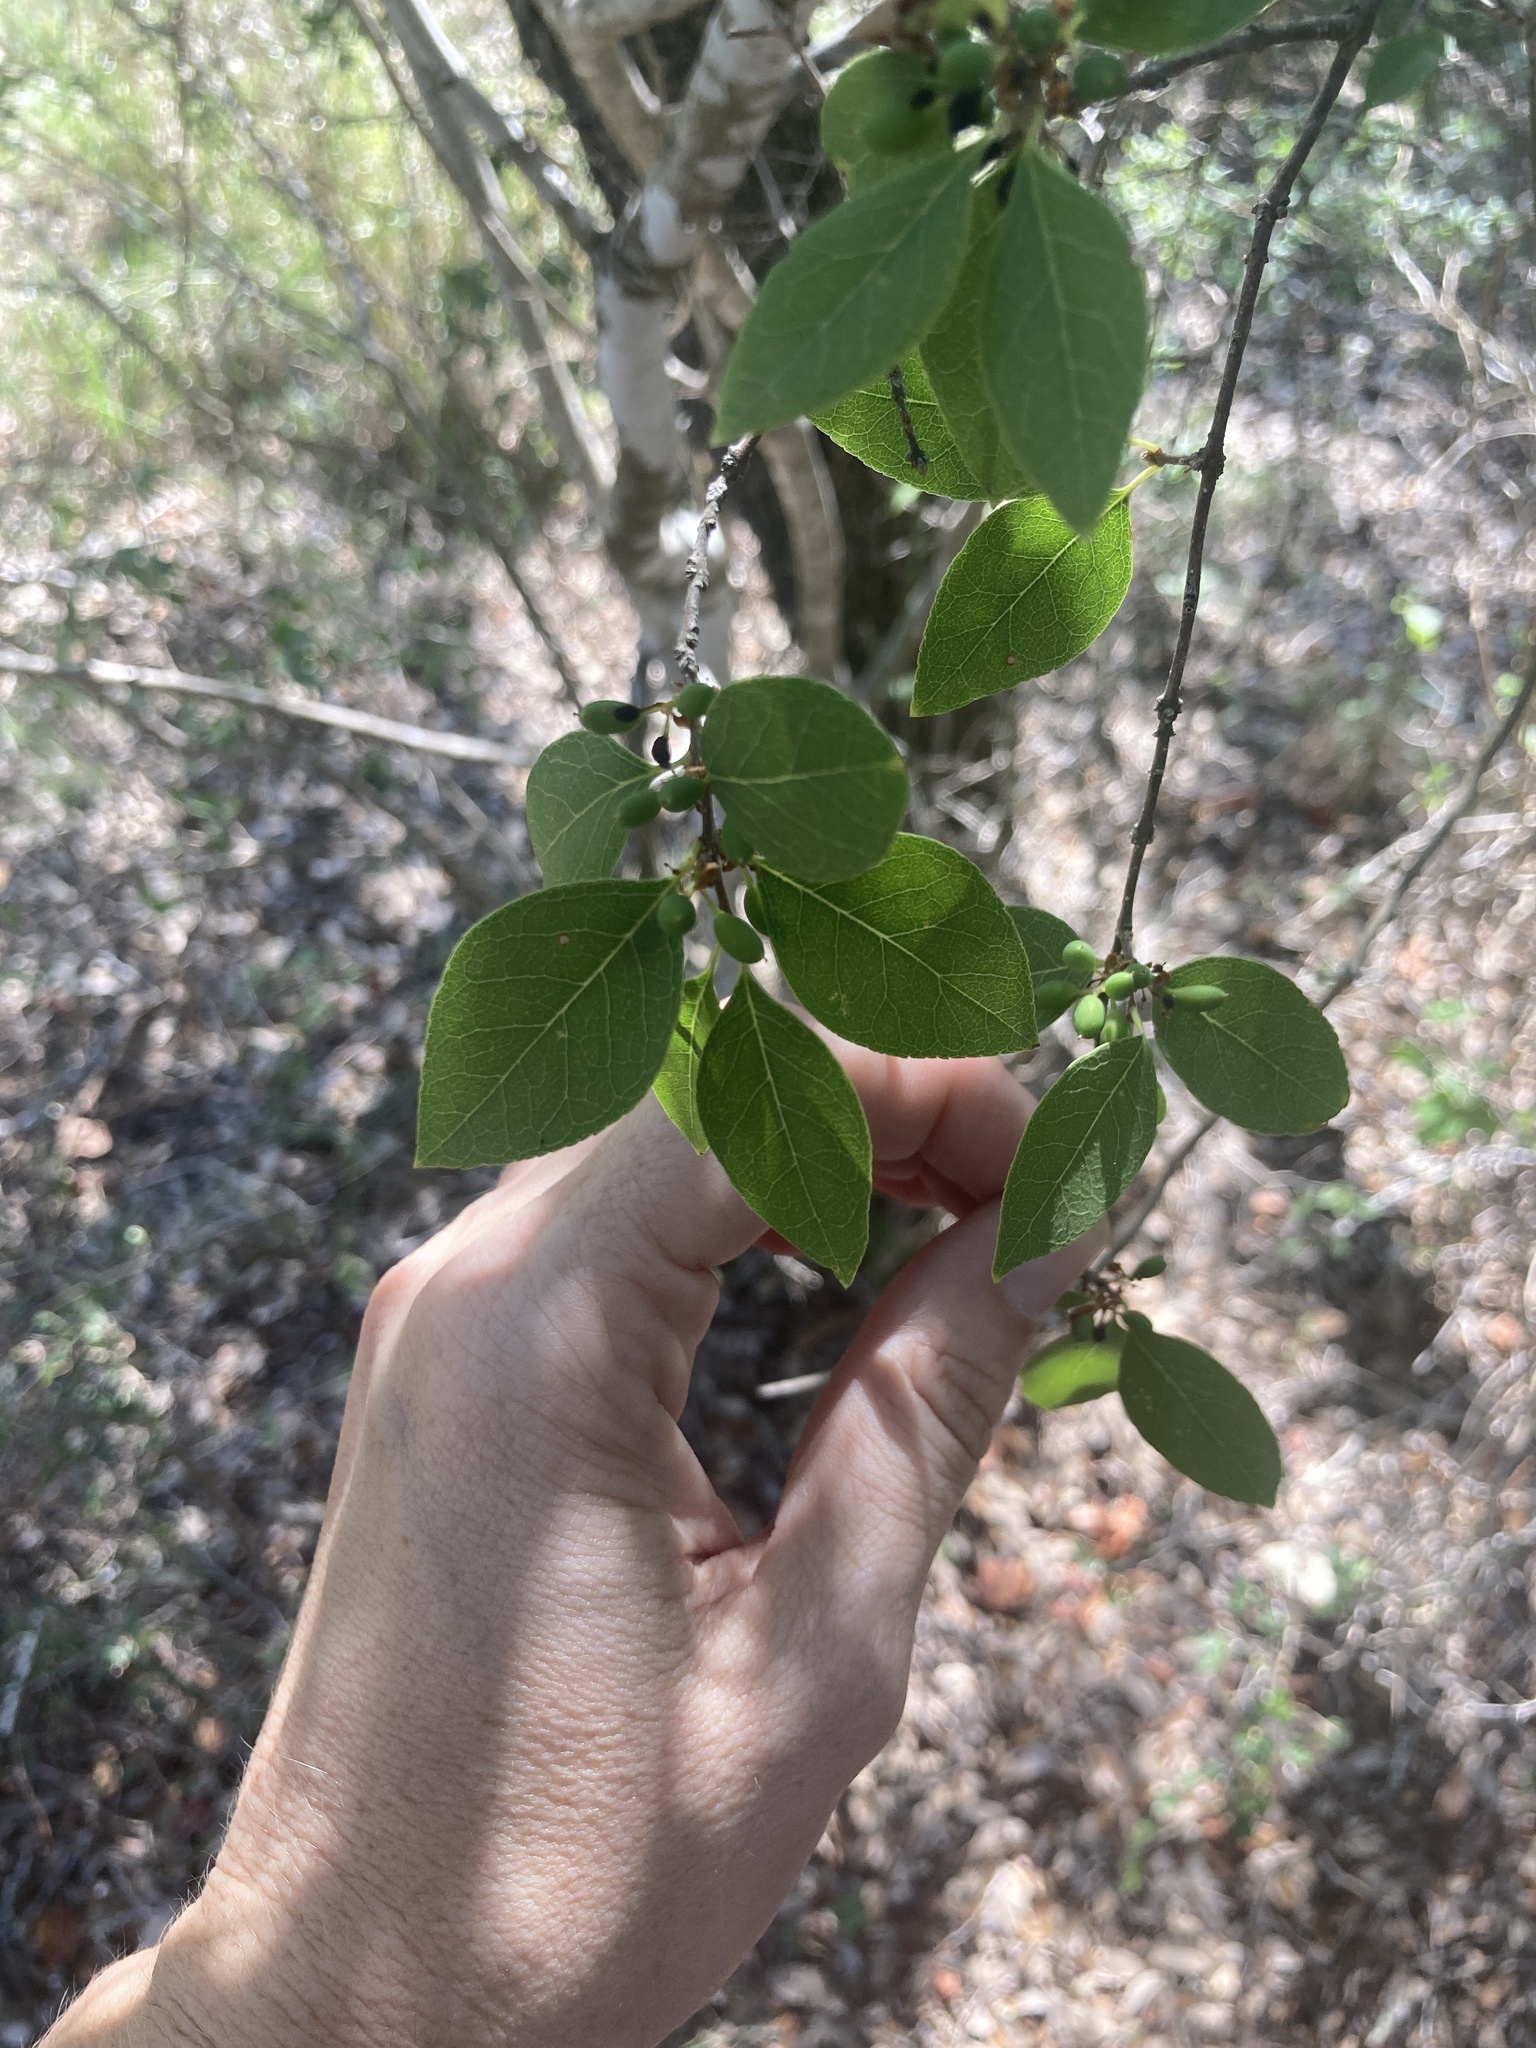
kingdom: Plantae
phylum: Tracheophyta
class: Magnoliopsida
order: Lamiales
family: Oleaceae
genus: Forestiera
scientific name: Forestiera reticulata
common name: Netleaf swamp-privet
